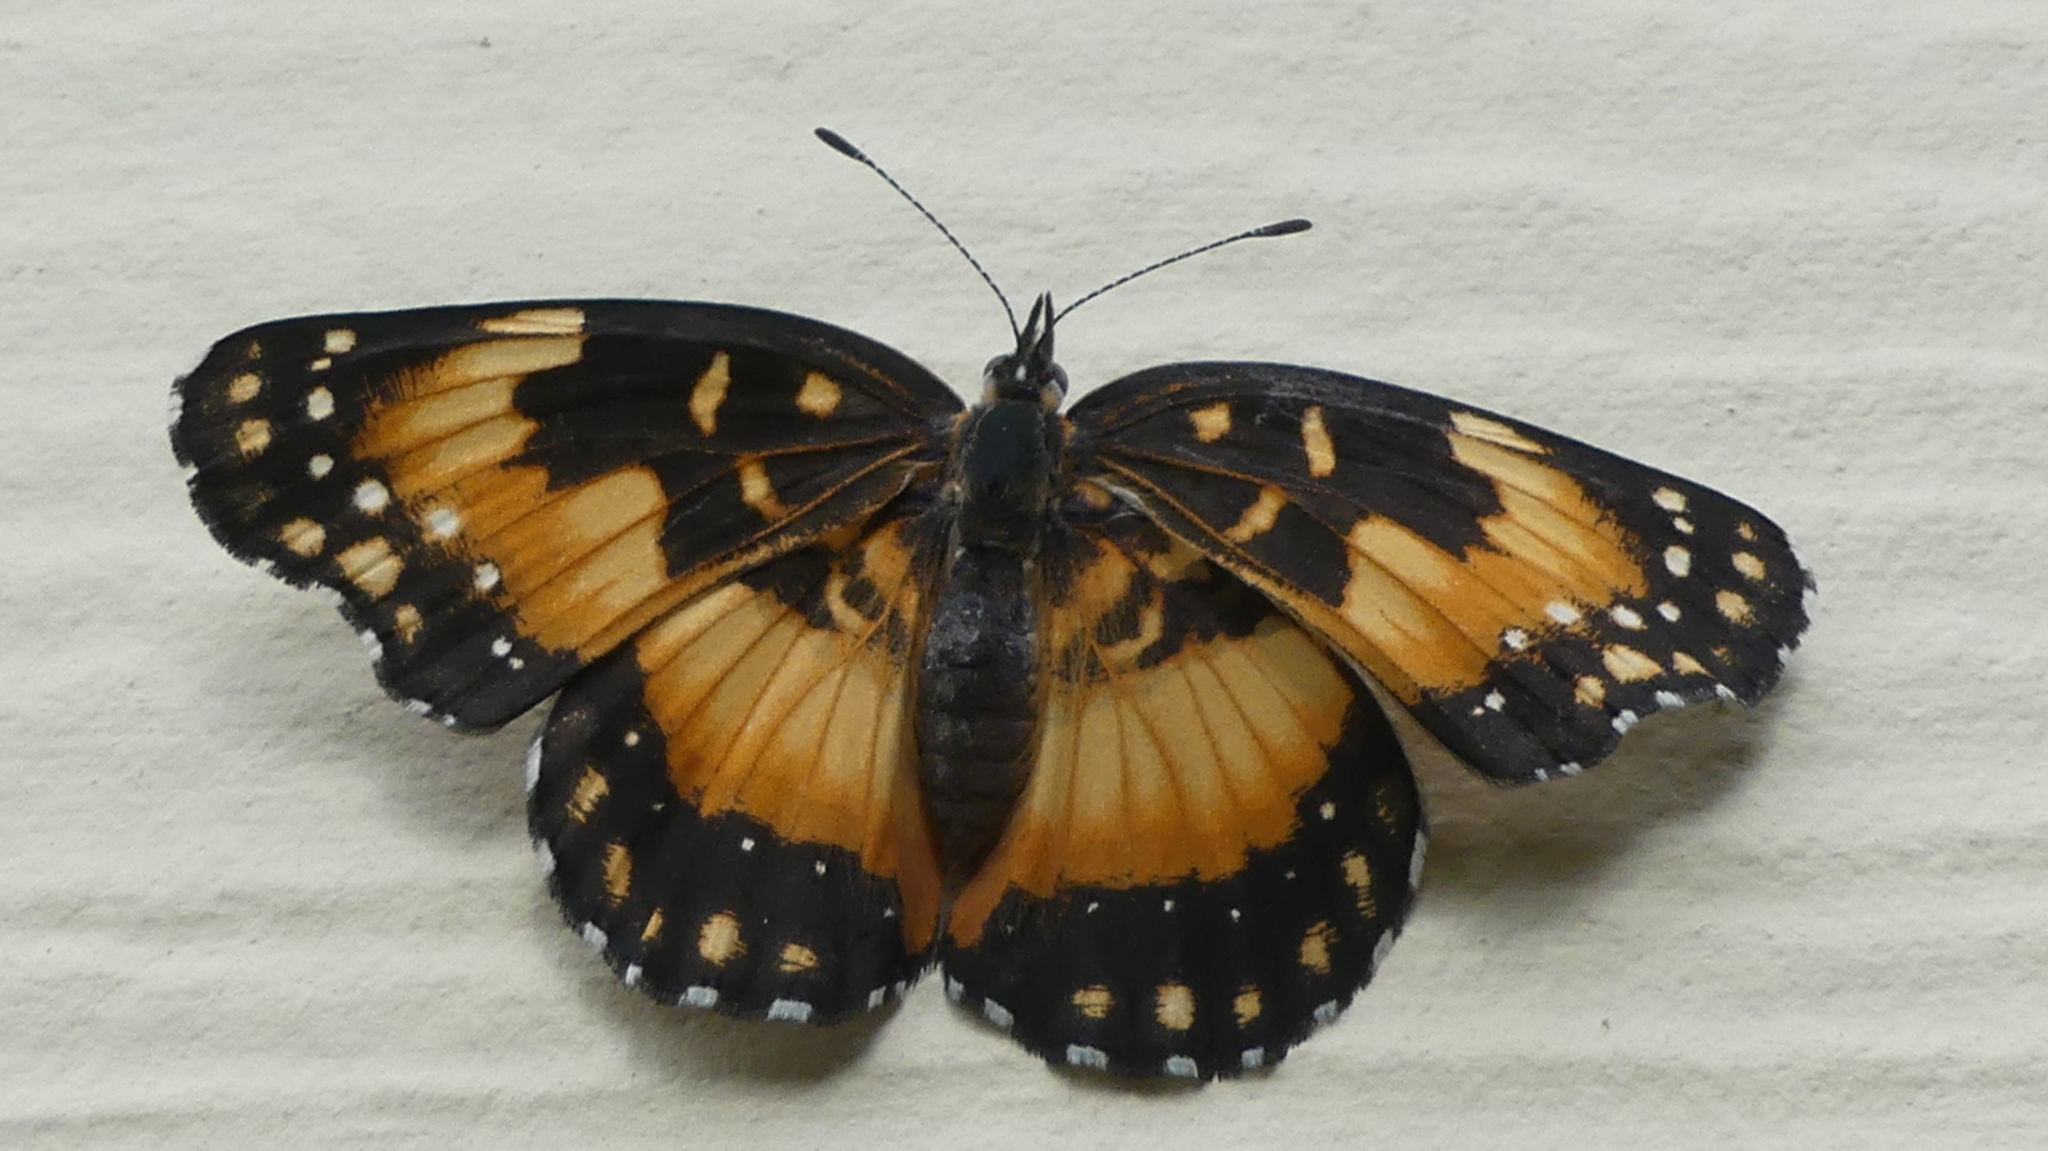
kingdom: Animalia
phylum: Arthropoda
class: Insecta
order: Lepidoptera
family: Nymphalidae
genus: Chlosyne
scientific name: Chlosyne lacinia
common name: Bordered patch
